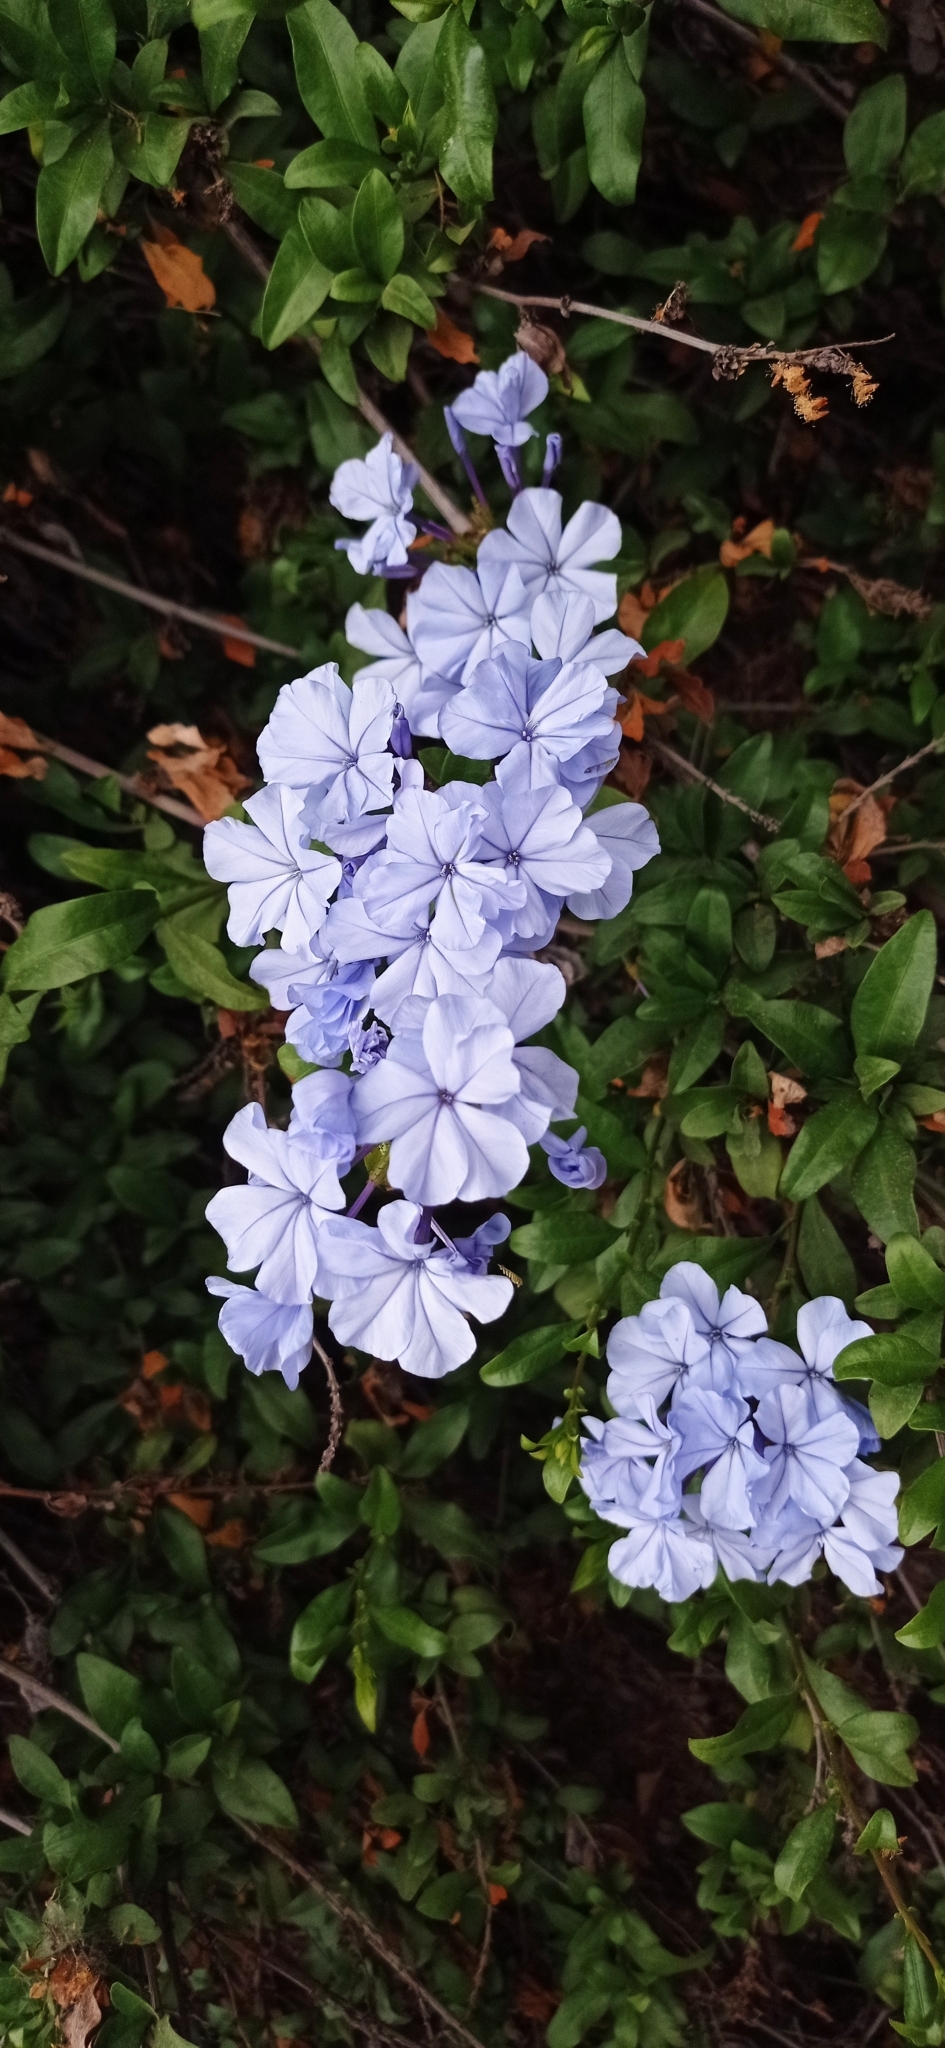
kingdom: Plantae
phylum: Tracheophyta
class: Magnoliopsida
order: Caryophyllales
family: Plumbaginaceae
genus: Plumbago
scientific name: Plumbago auriculata
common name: Cape leadwort
